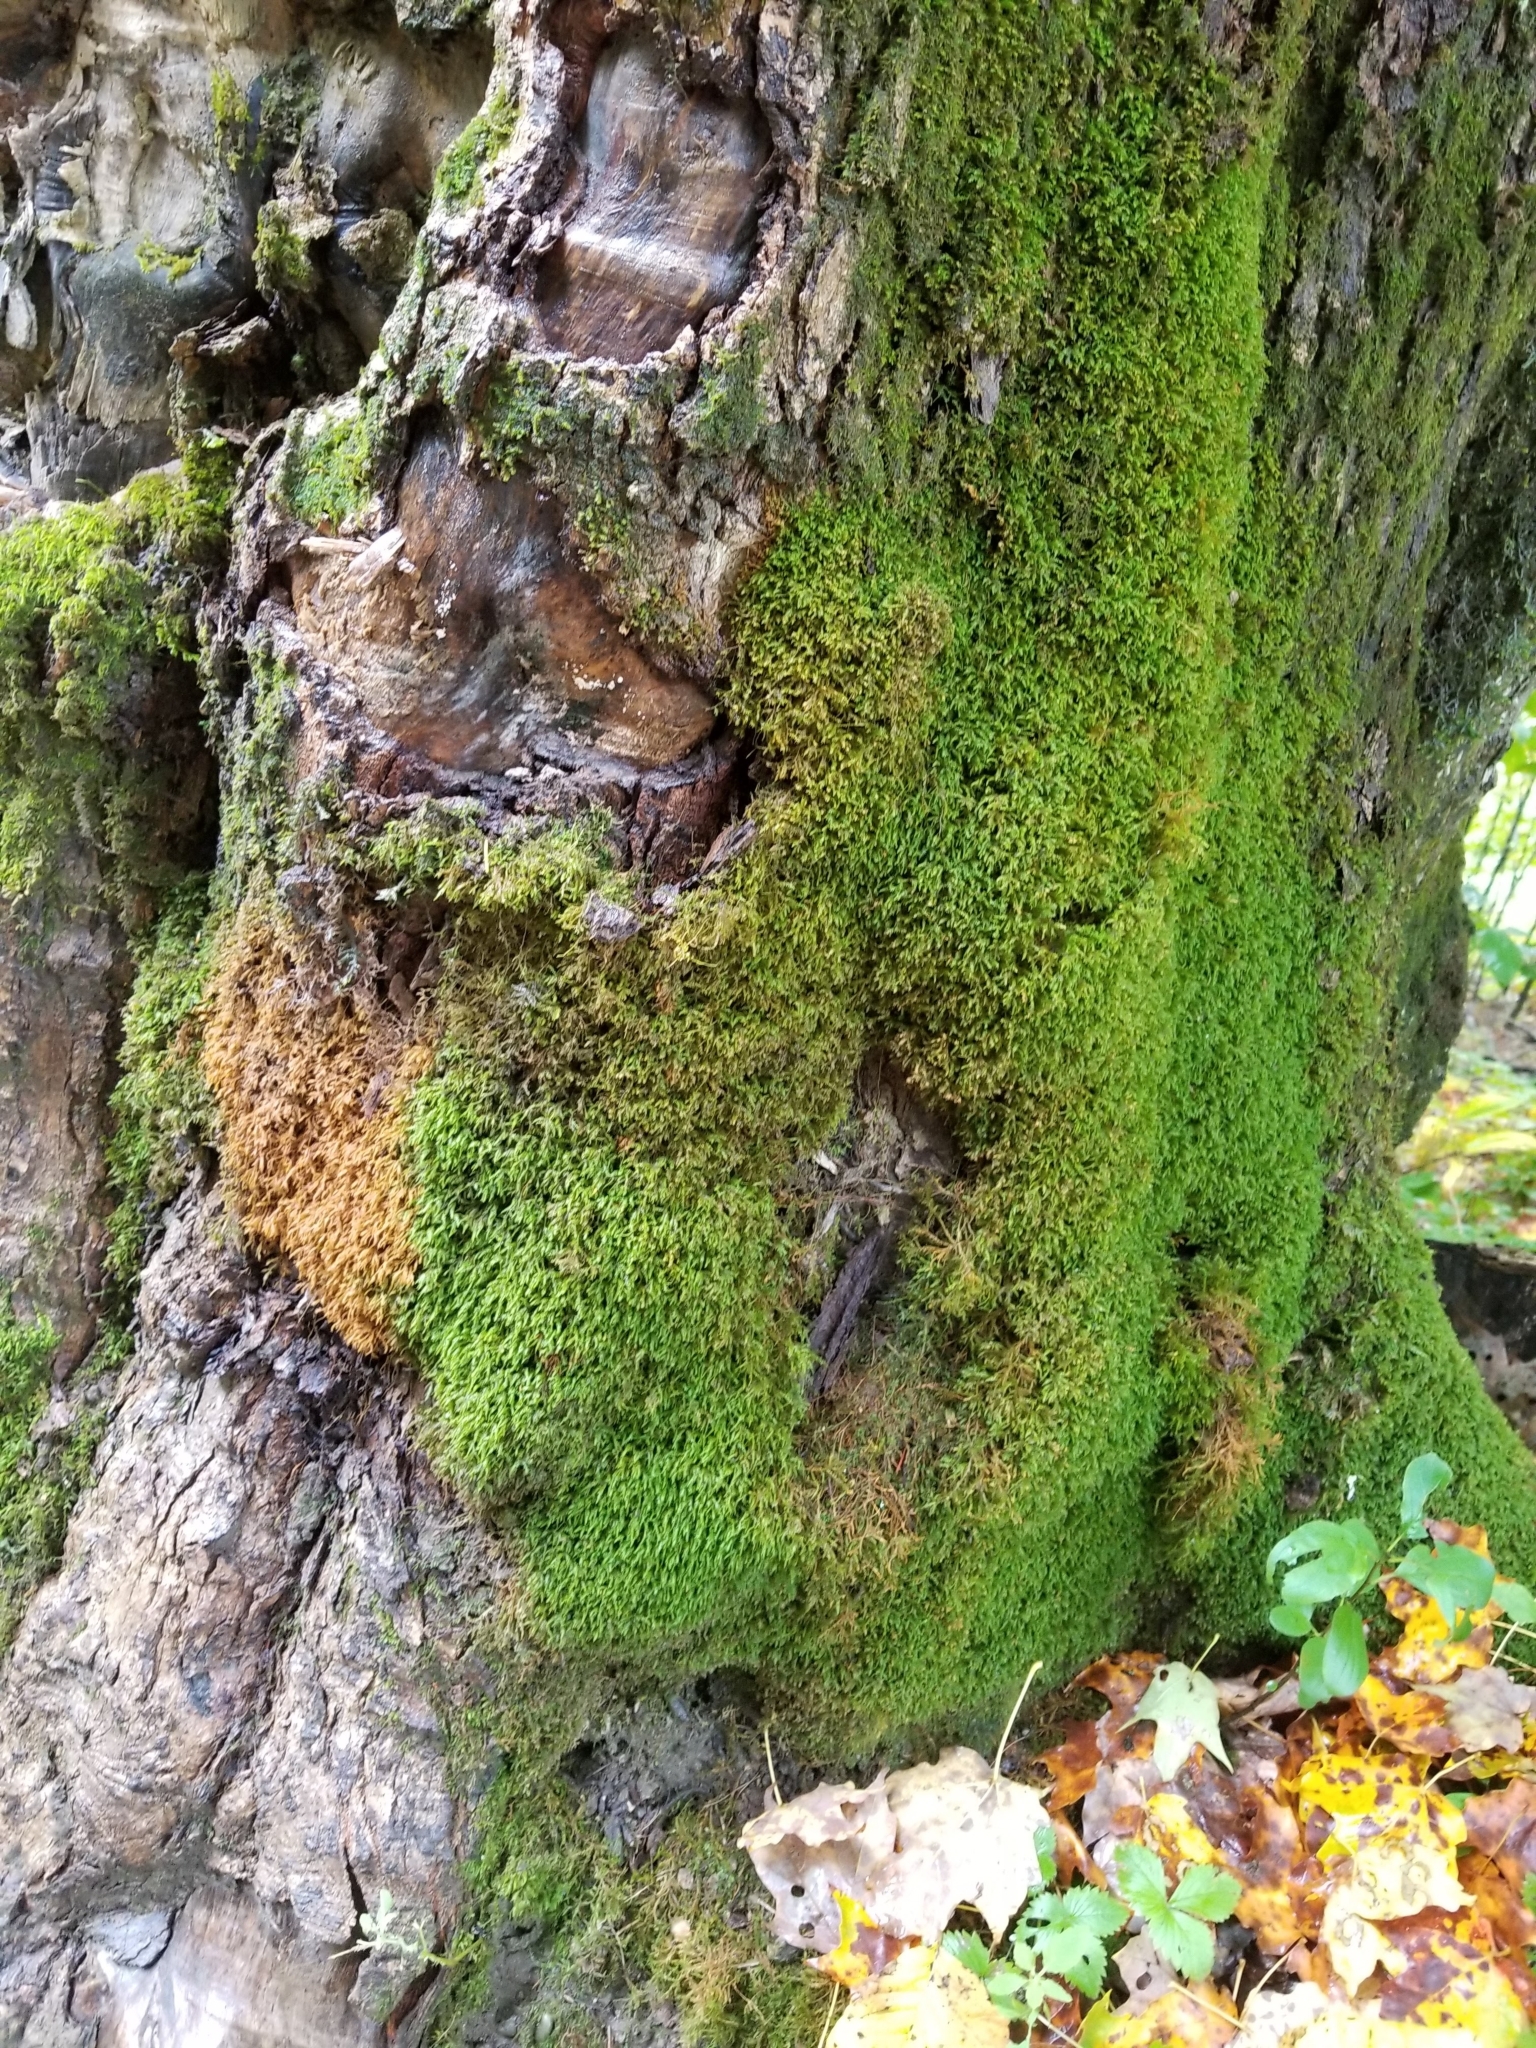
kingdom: Plantae
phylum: Bryophyta
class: Bryopsida
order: Hypnales
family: Neckeraceae
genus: Pseudanomodon
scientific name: Pseudanomodon attenuatus
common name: Tree-skirt moss
